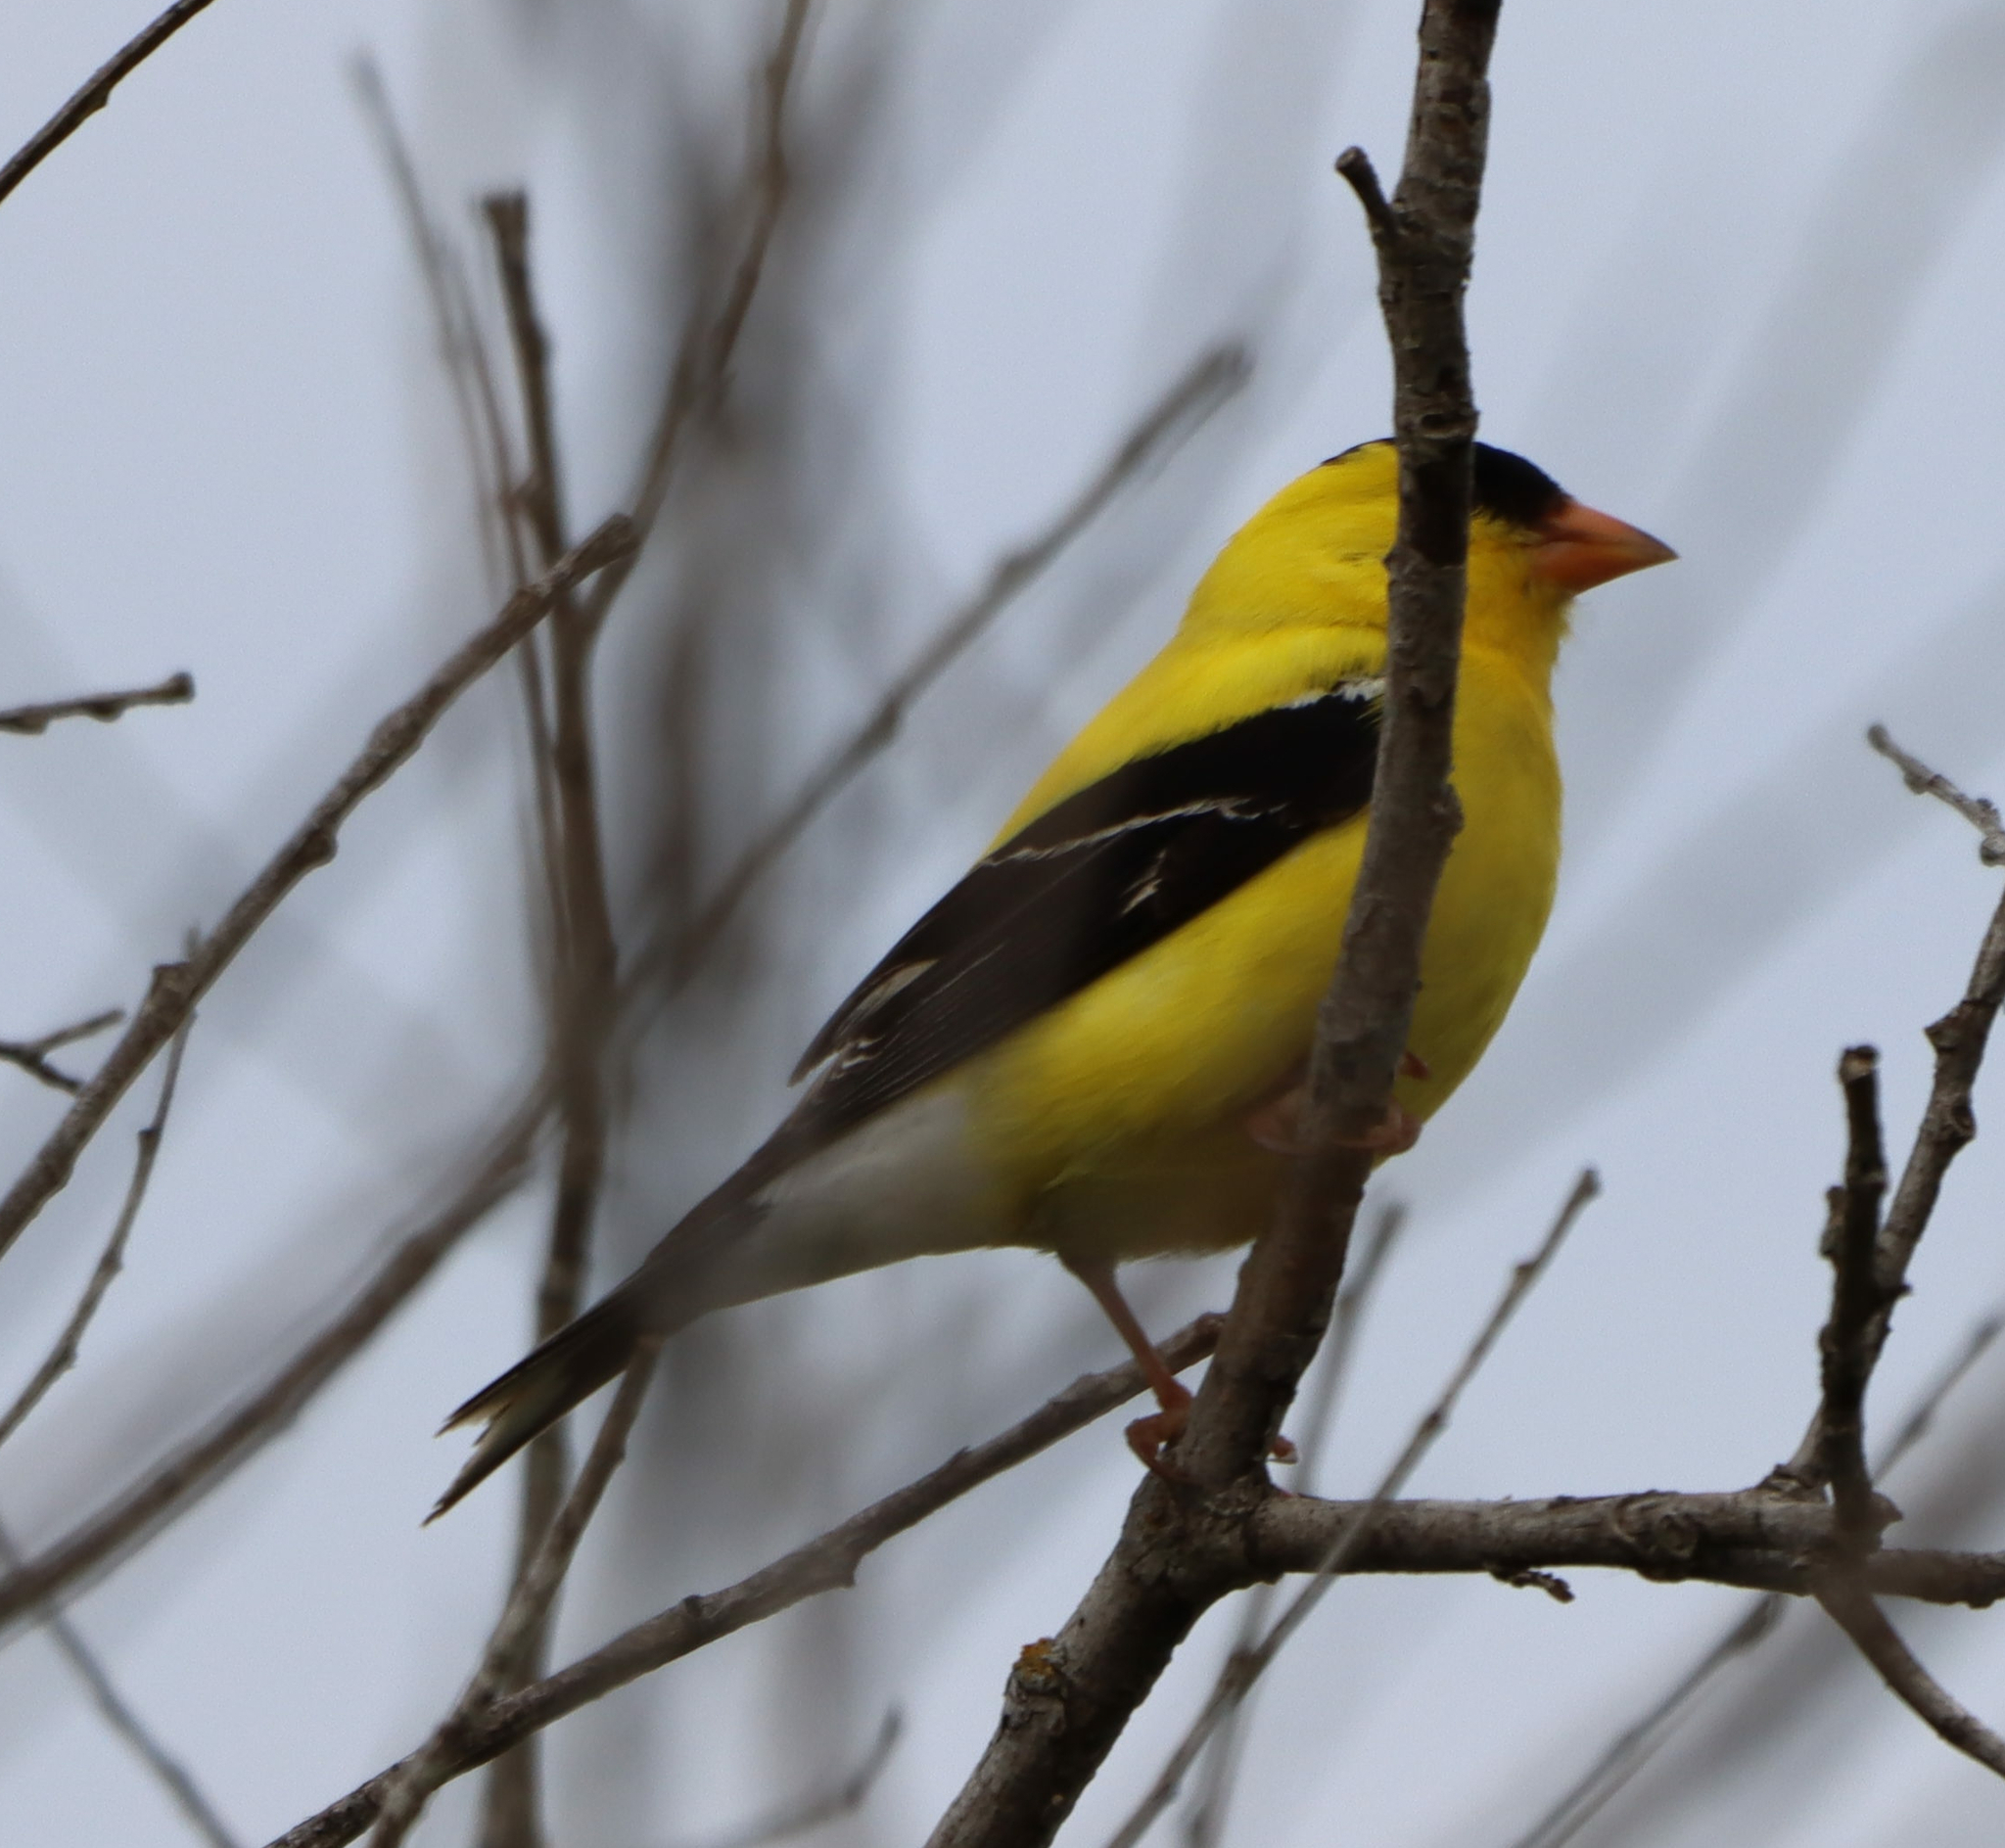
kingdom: Animalia
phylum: Chordata
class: Aves
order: Passeriformes
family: Fringillidae
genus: Spinus
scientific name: Spinus tristis
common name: American goldfinch
